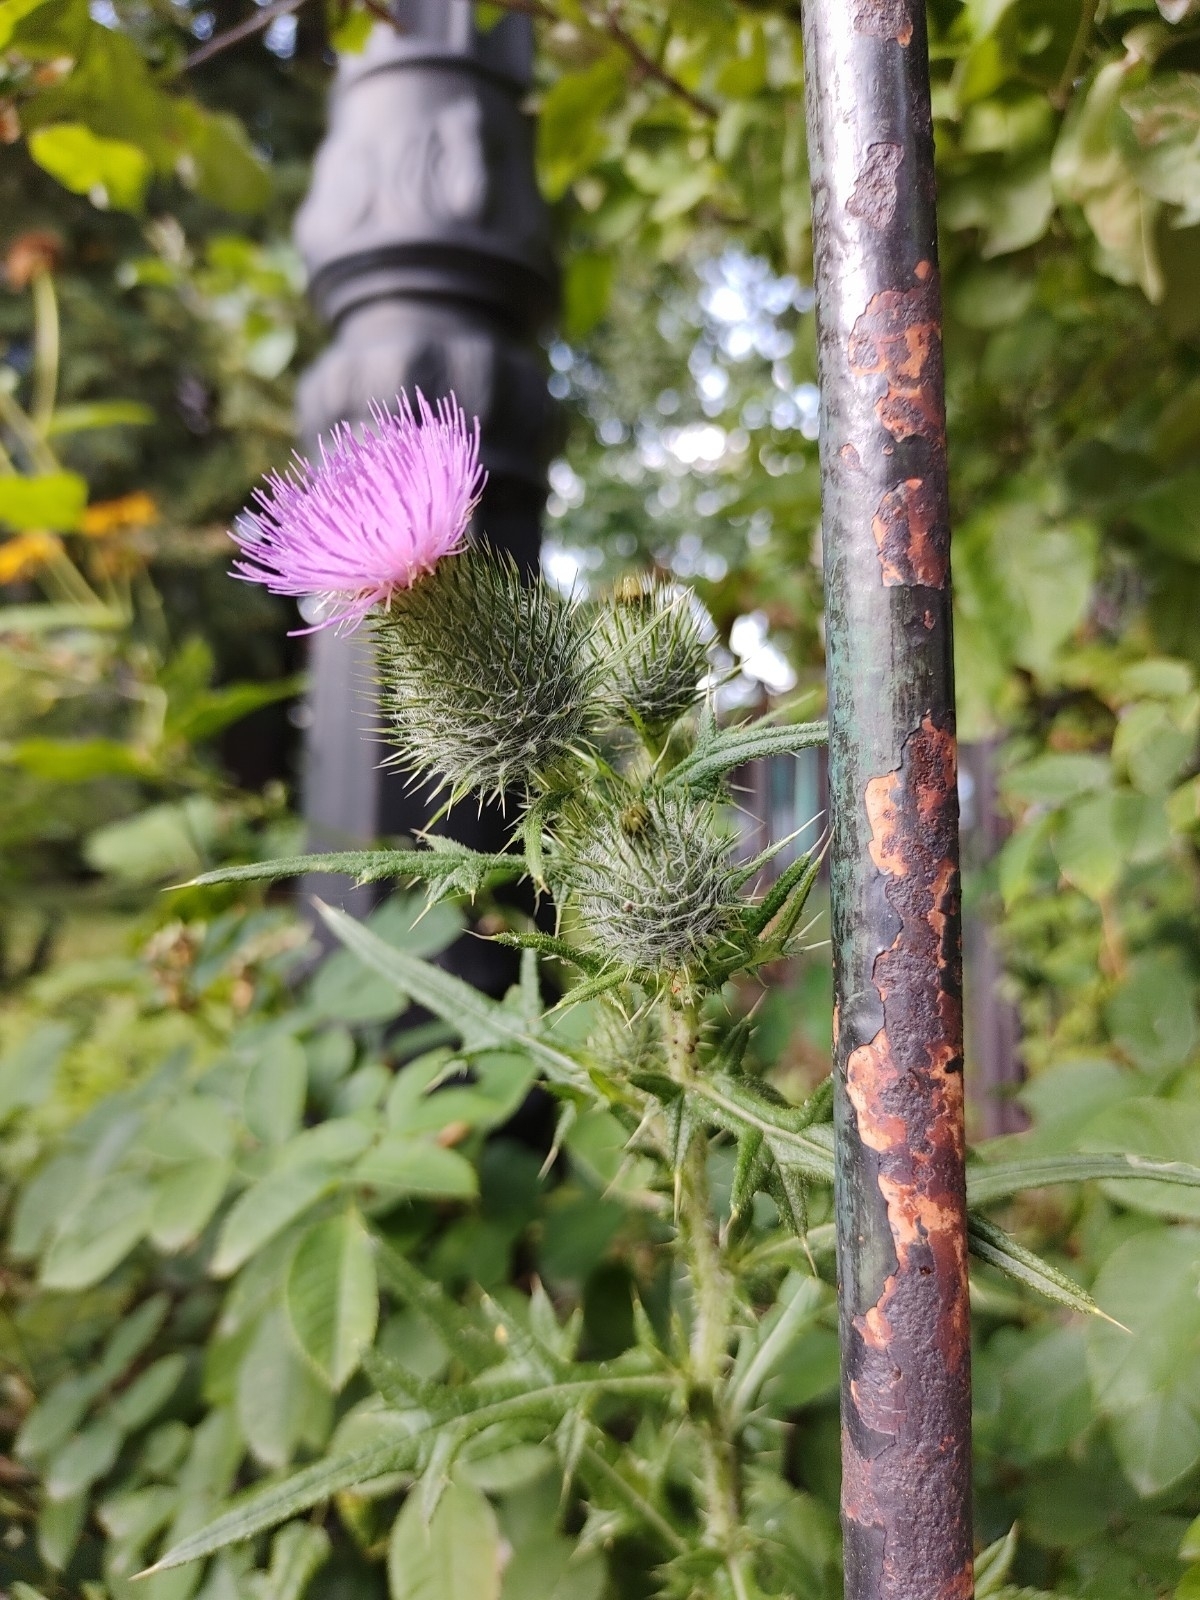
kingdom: Plantae
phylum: Tracheophyta
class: Magnoliopsida
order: Asterales
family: Asteraceae
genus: Cirsium
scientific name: Cirsium vulgare
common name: Bull thistle
